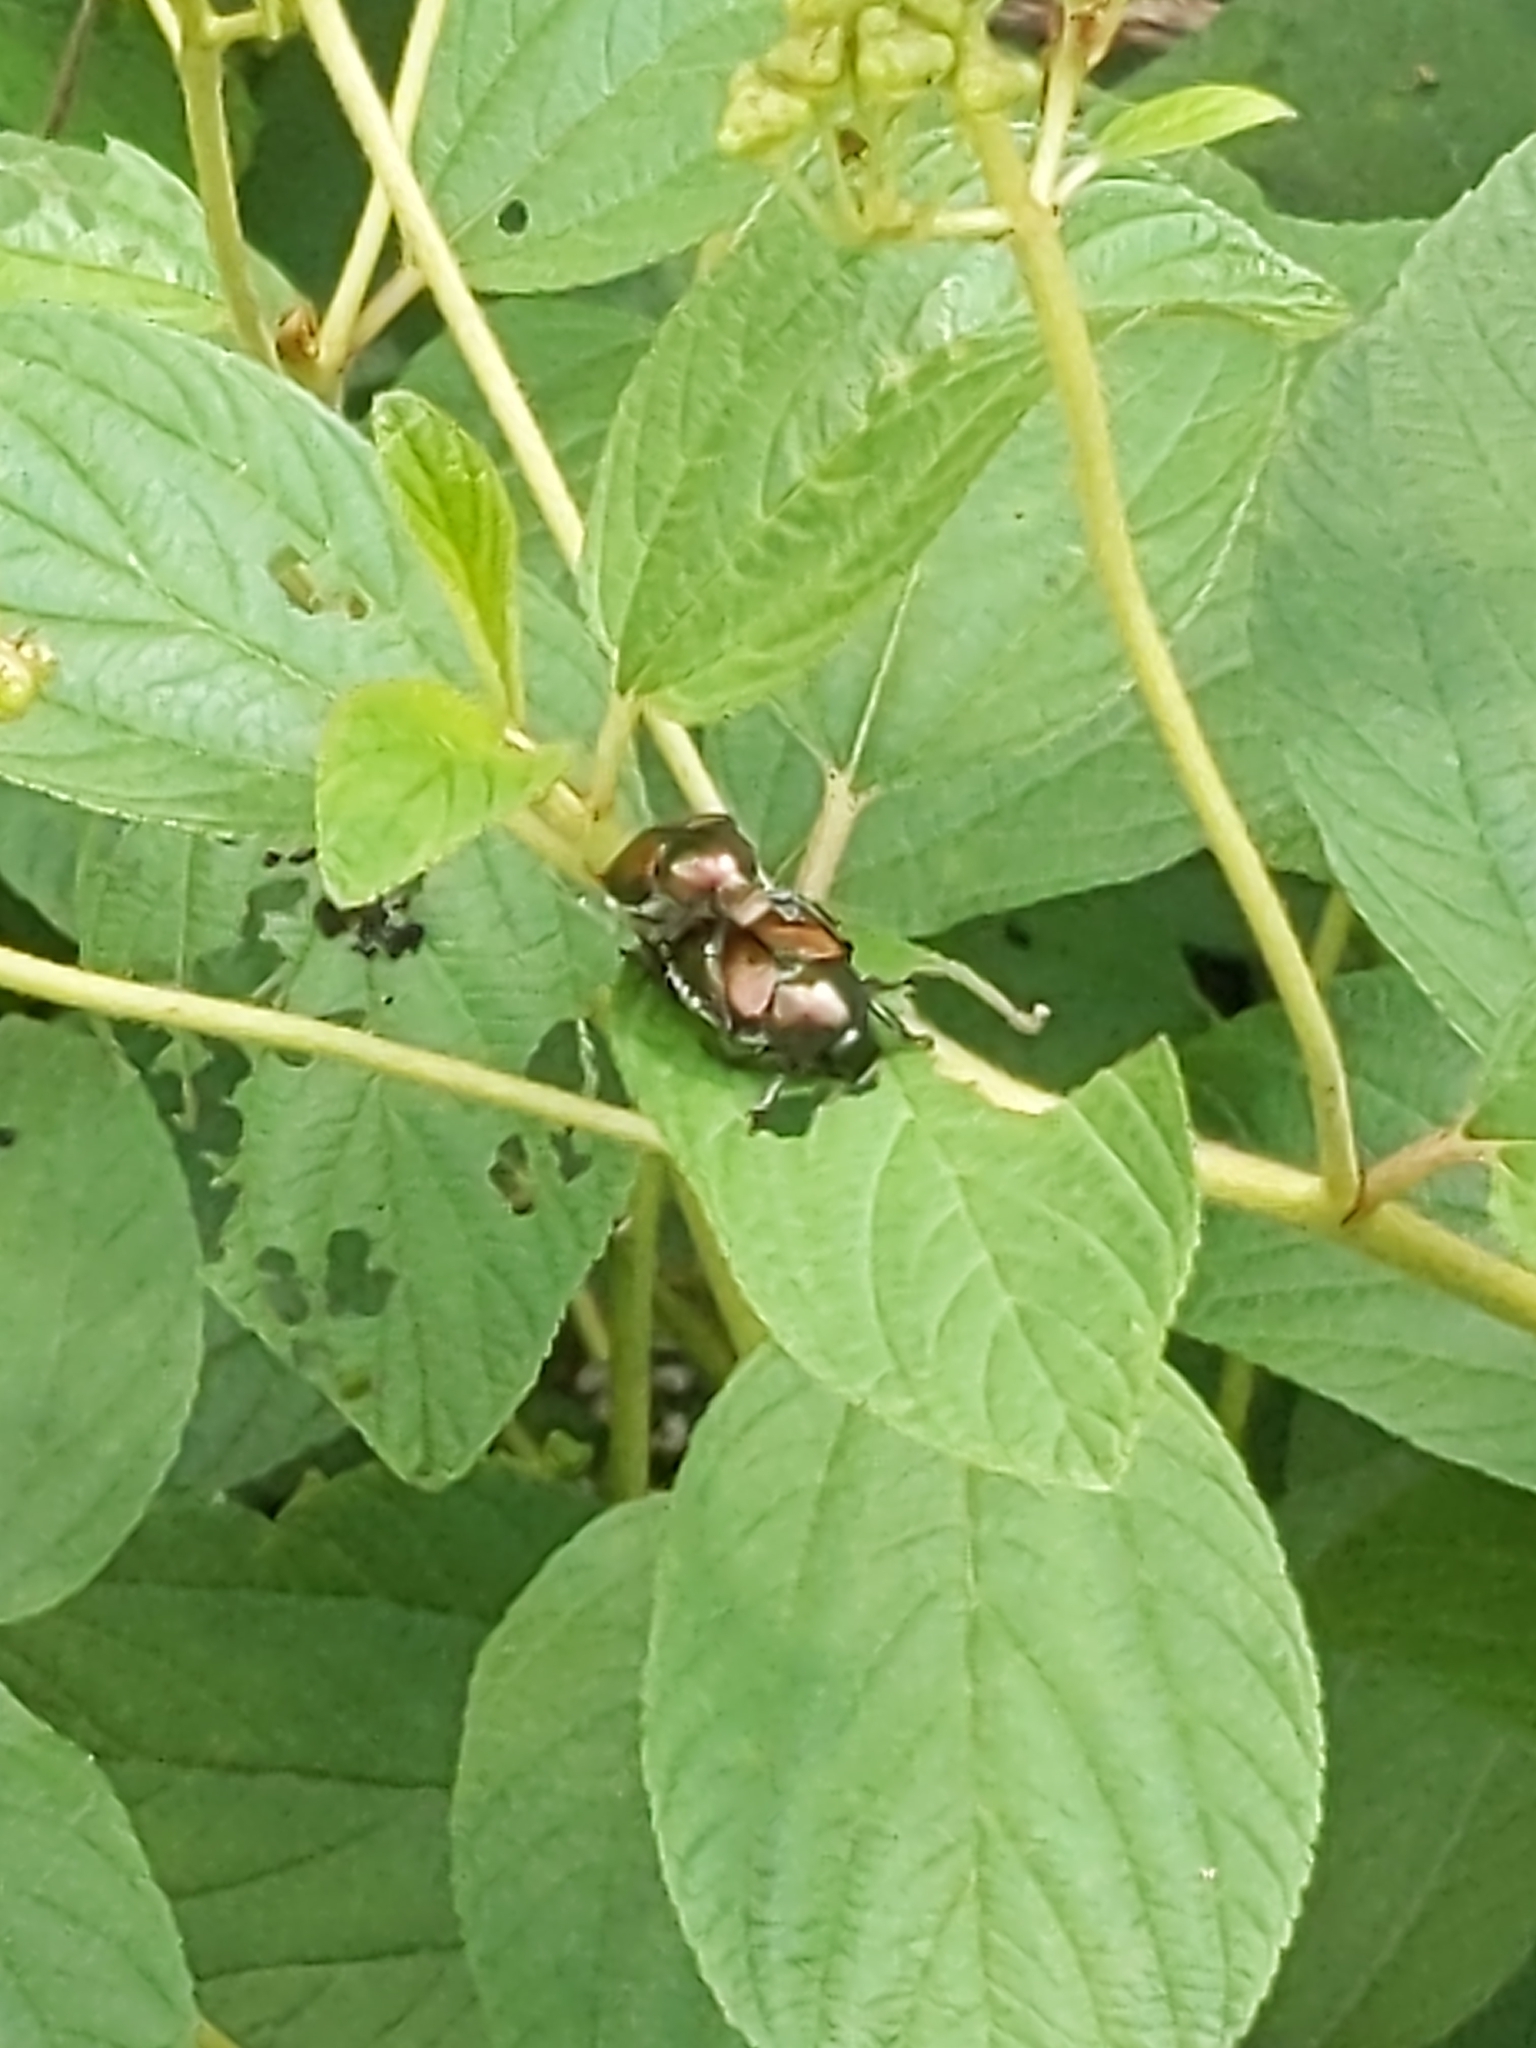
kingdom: Animalia
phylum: Arthropoda
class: Insecta
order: Coleoptera
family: Scarabaeidae
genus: Popillia
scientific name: Popillia japonica
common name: Japanese beetle
